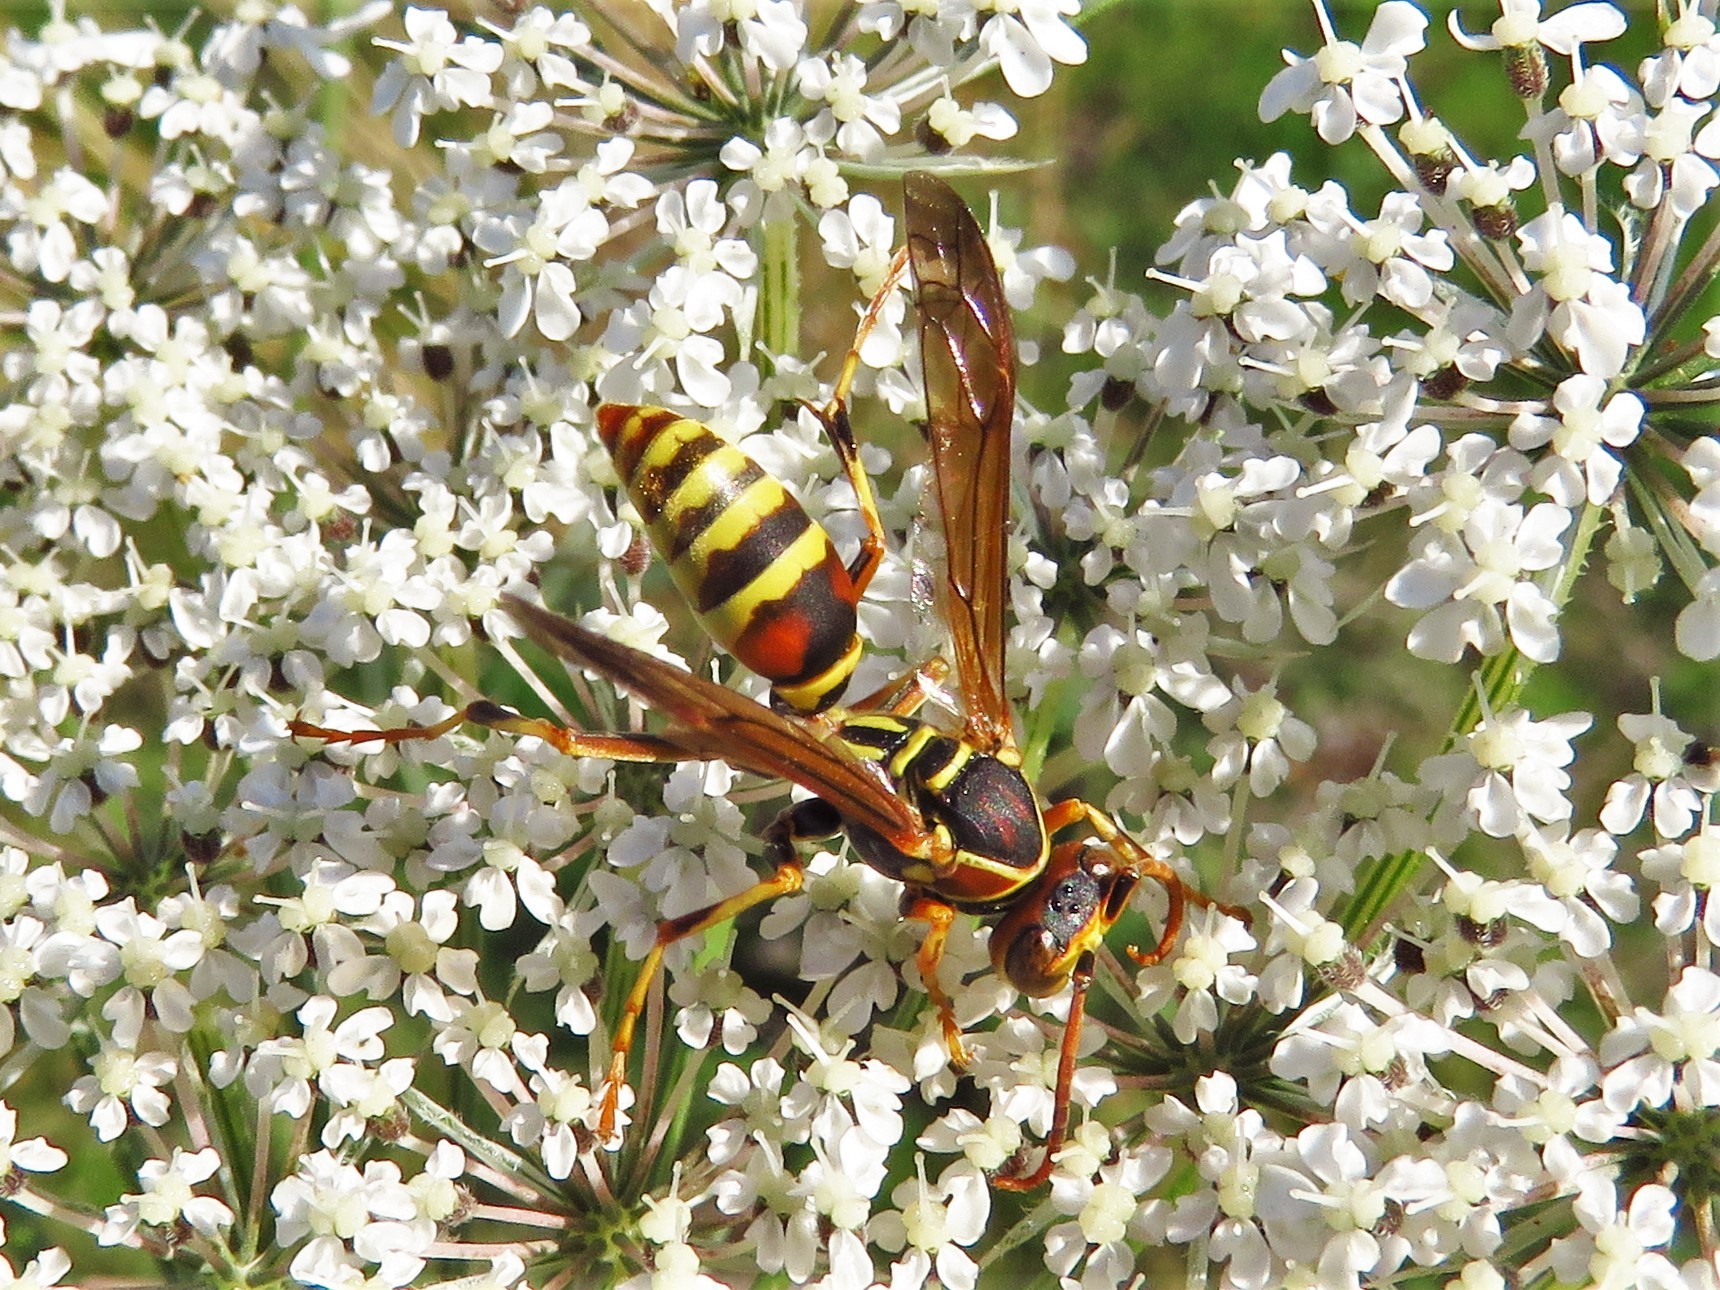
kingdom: Animalia
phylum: Arthropoda
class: Insecta
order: Hymenoptera
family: Eumenidae
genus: Polistes
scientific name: Polistes dorsalis
